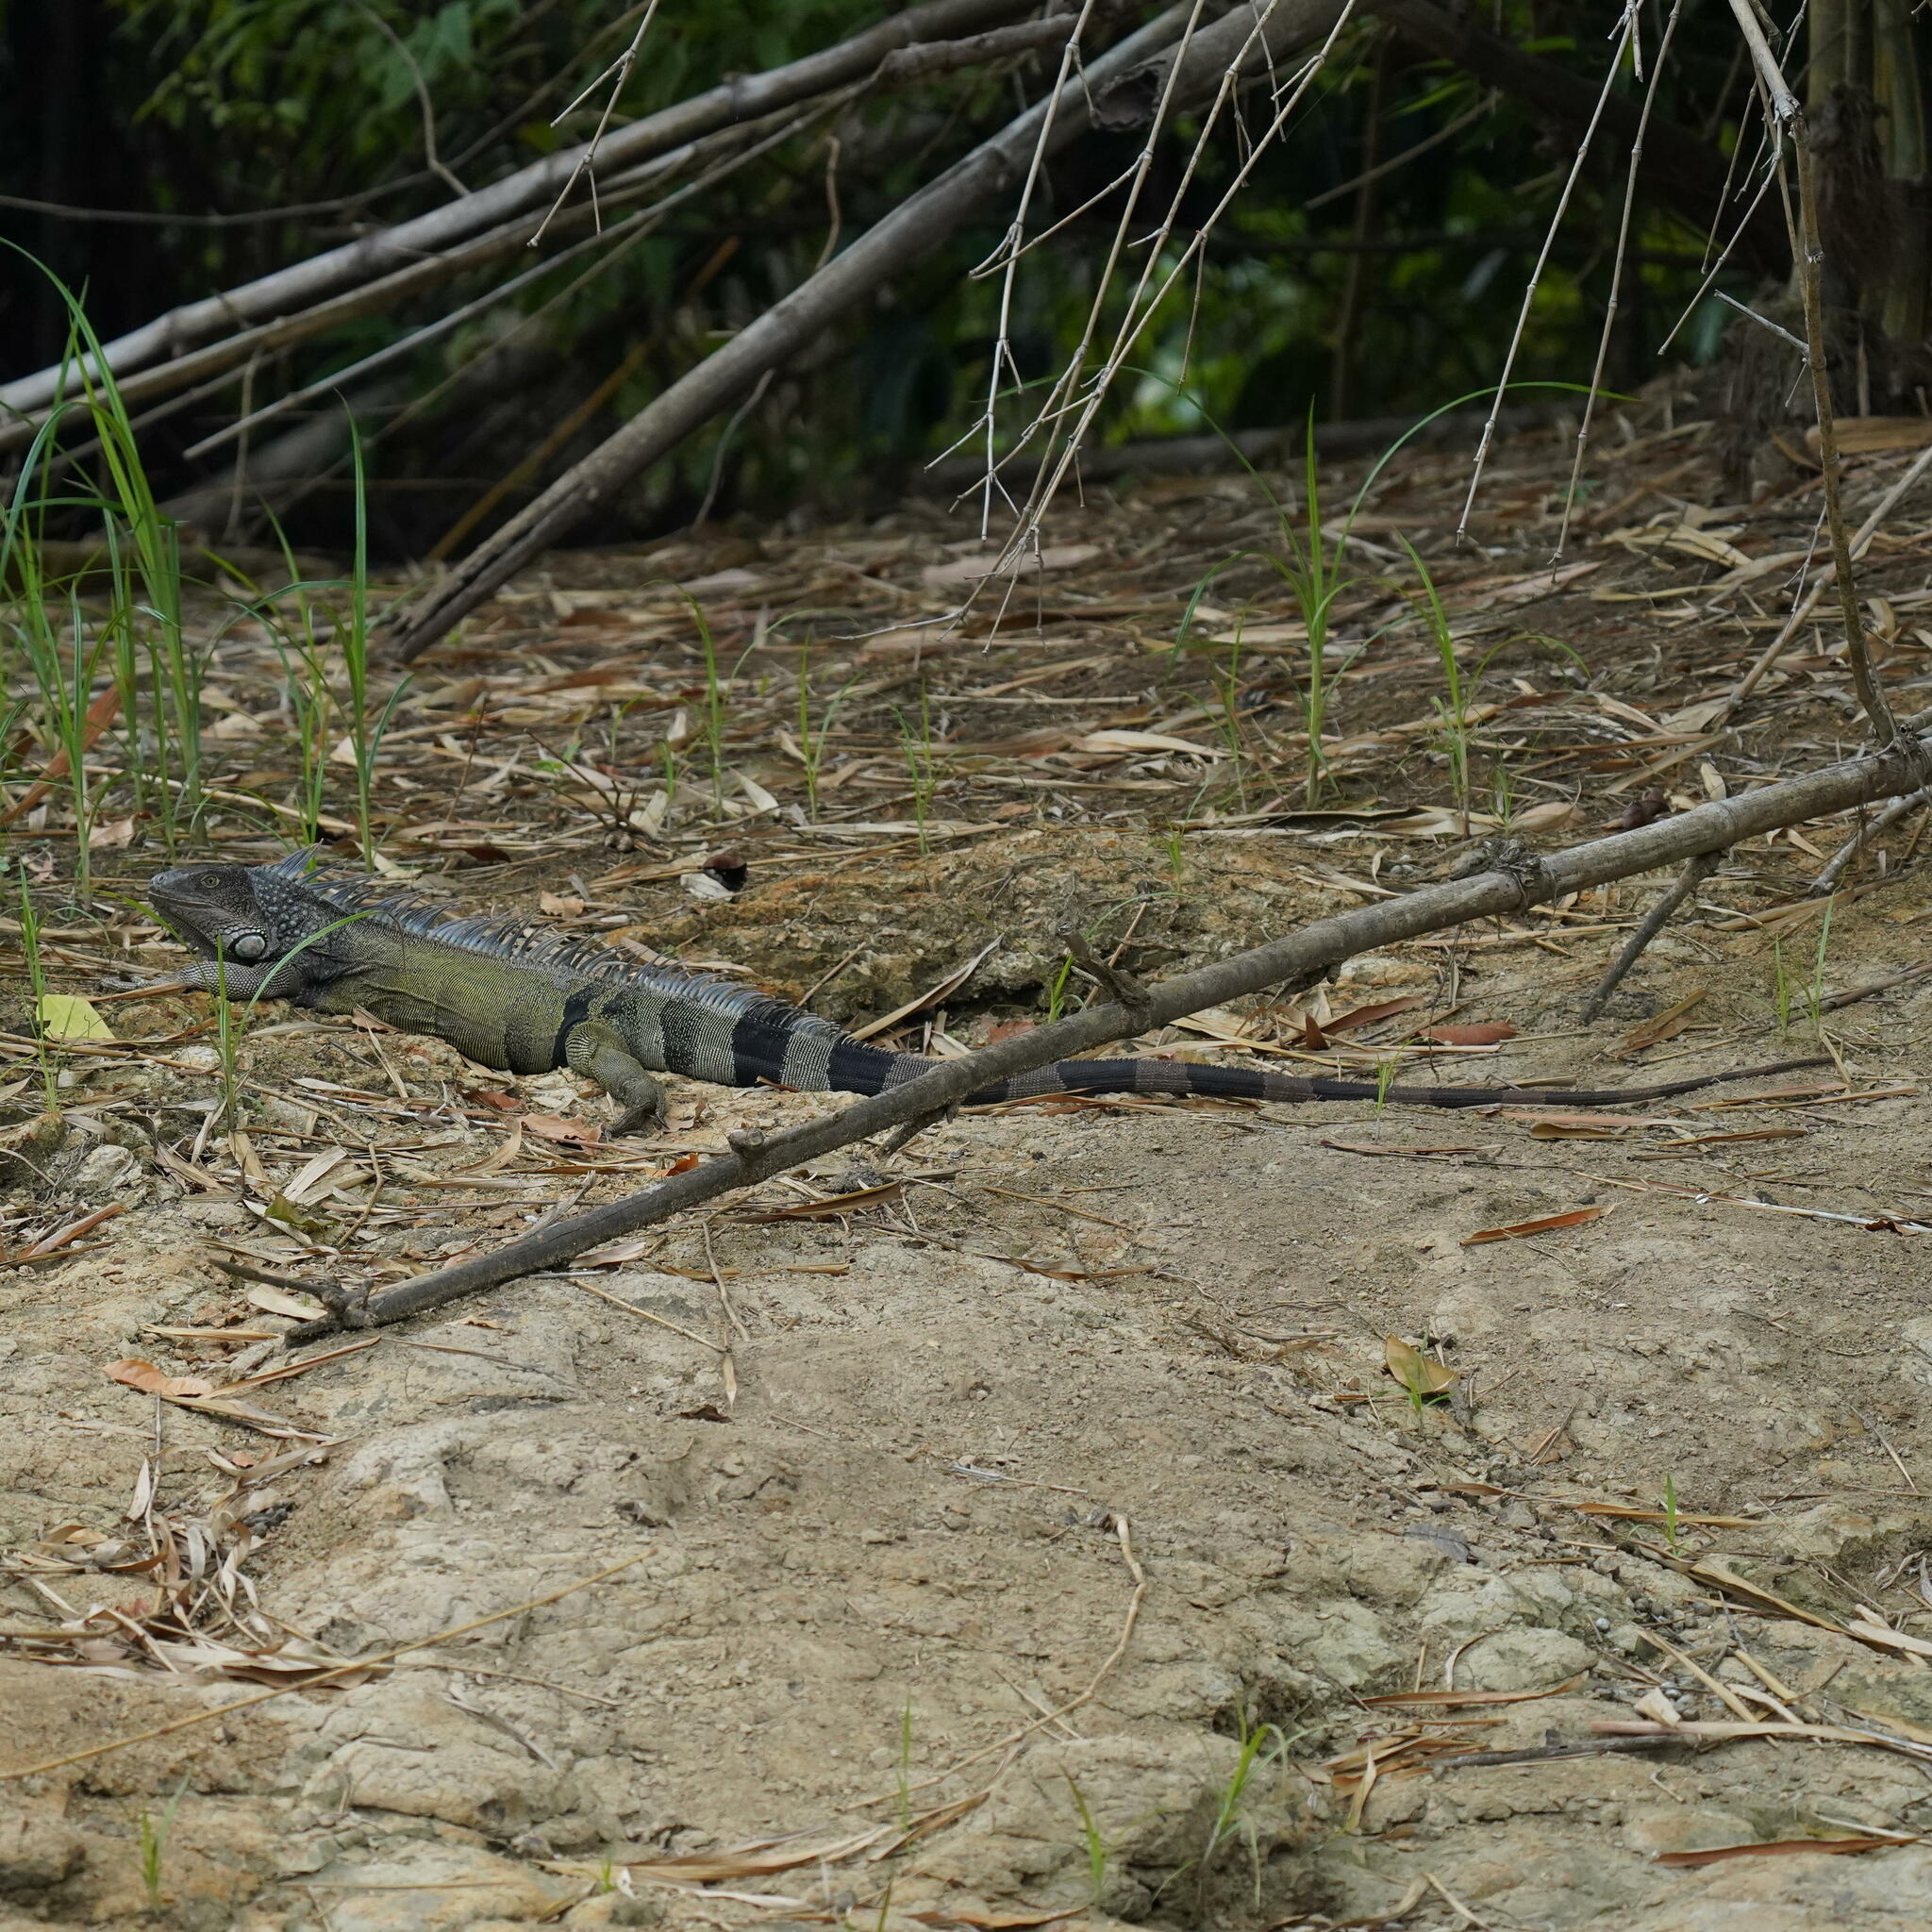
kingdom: Animalia
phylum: Chordata
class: Squamata
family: Iguanidae
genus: Iguana
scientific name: Iguana iguana
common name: Green iguana
